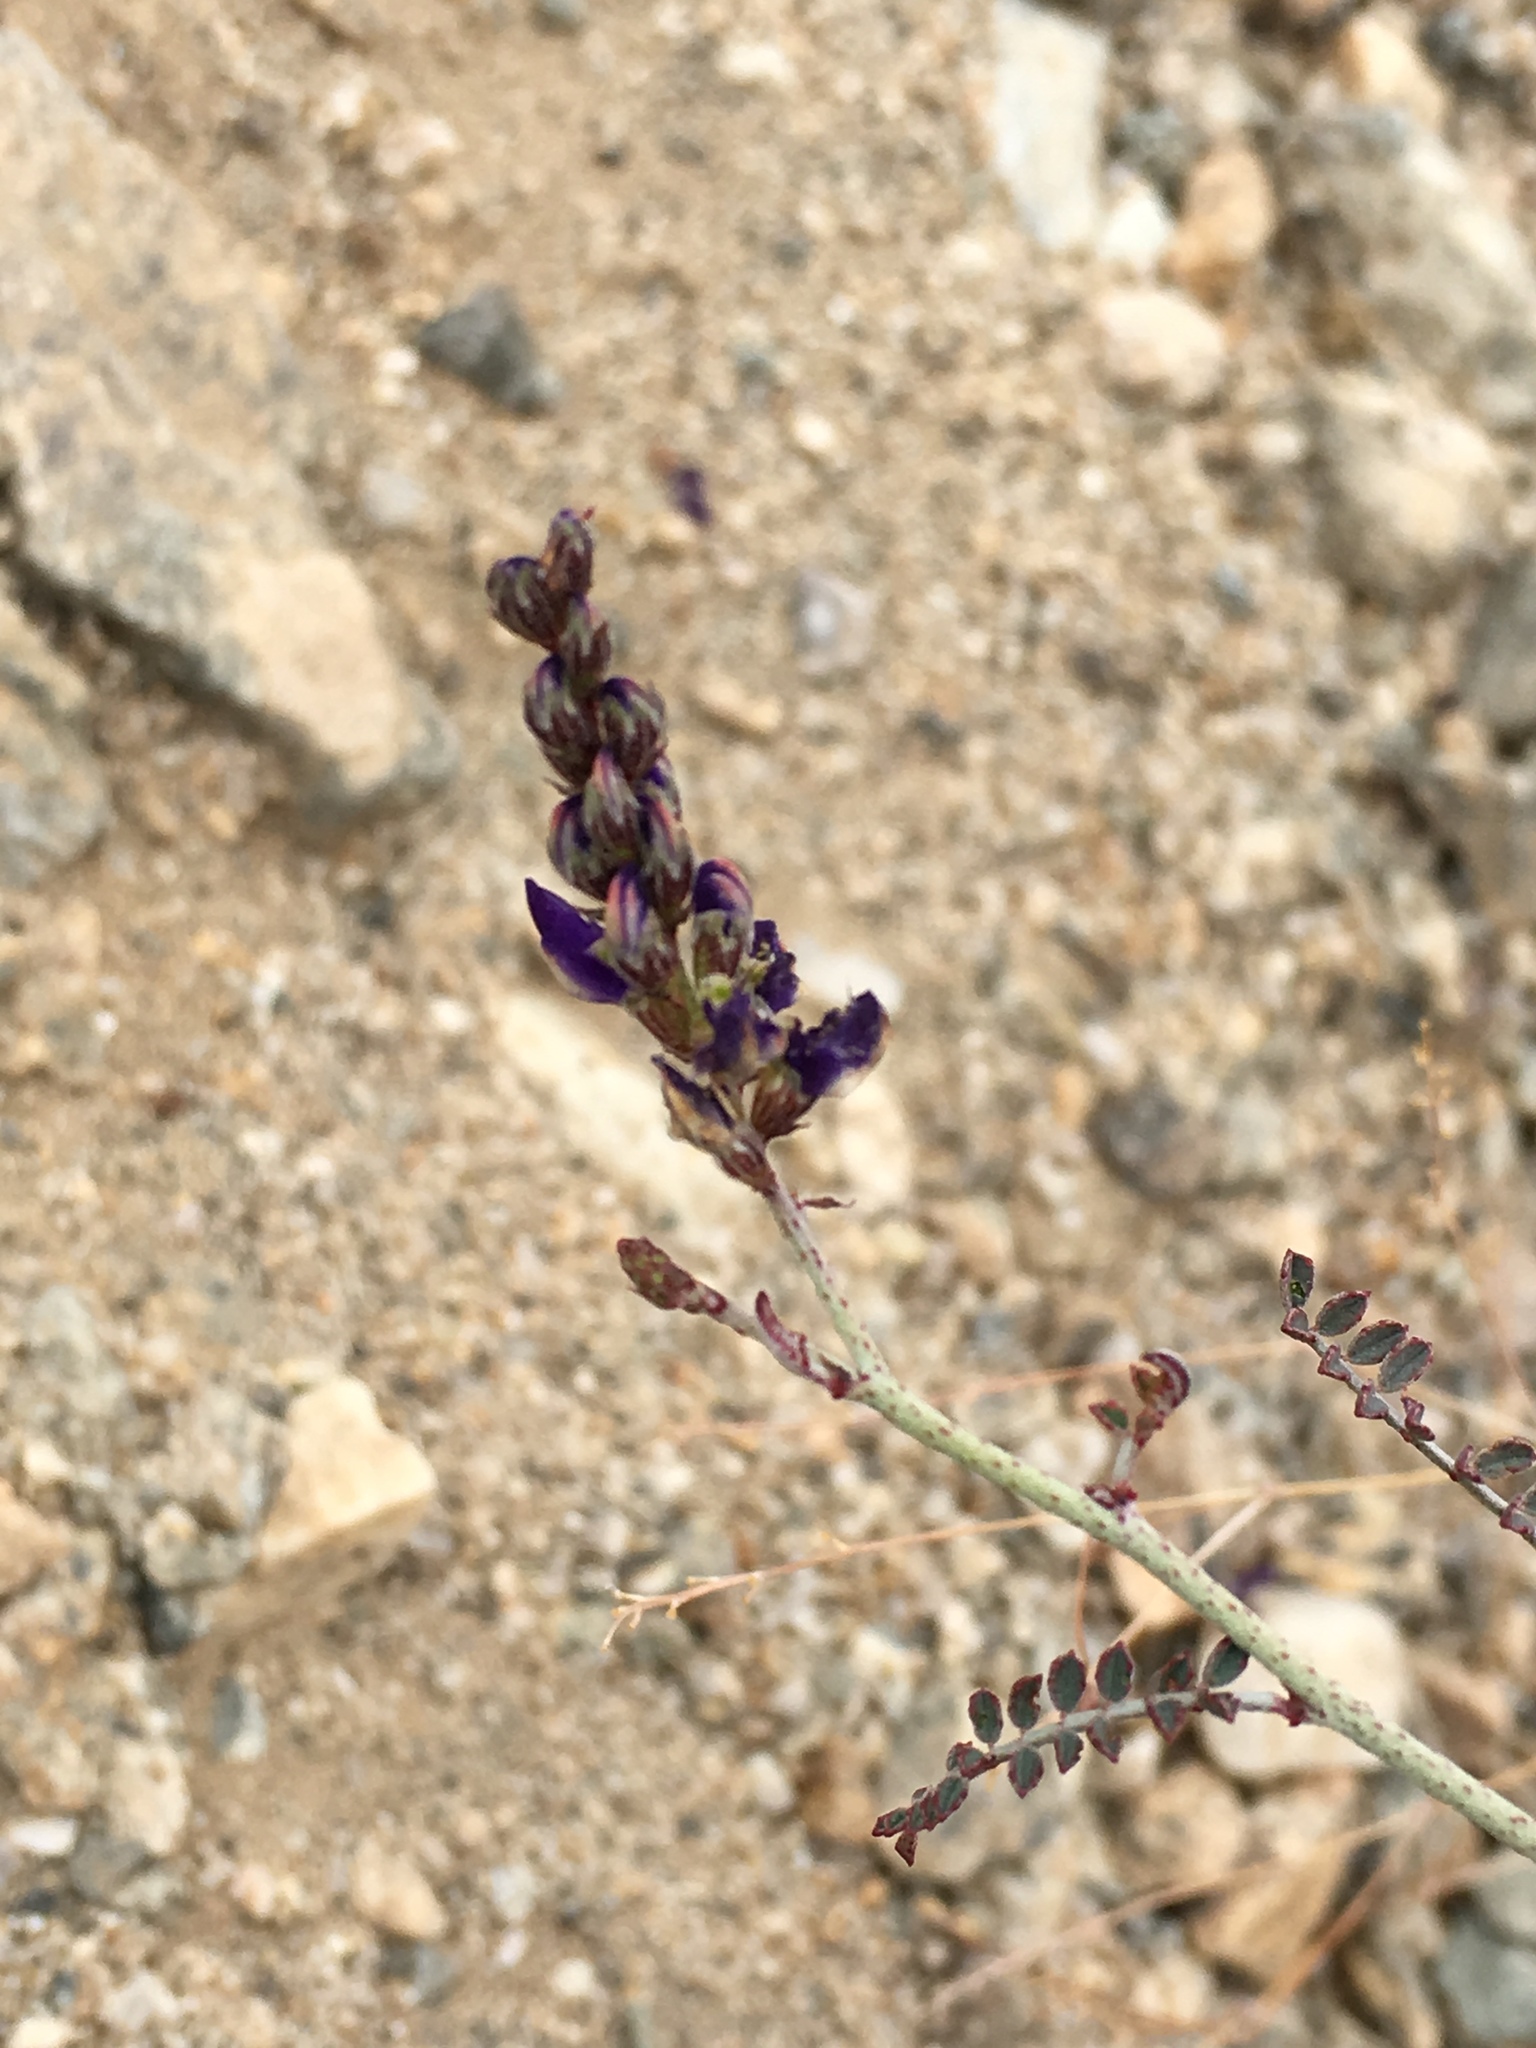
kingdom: Plantae
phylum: Tracheophyta
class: Magnoliopsida
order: Fabales
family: Fabaceae
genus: Marina
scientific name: Marina parryi
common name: Parry's marina
